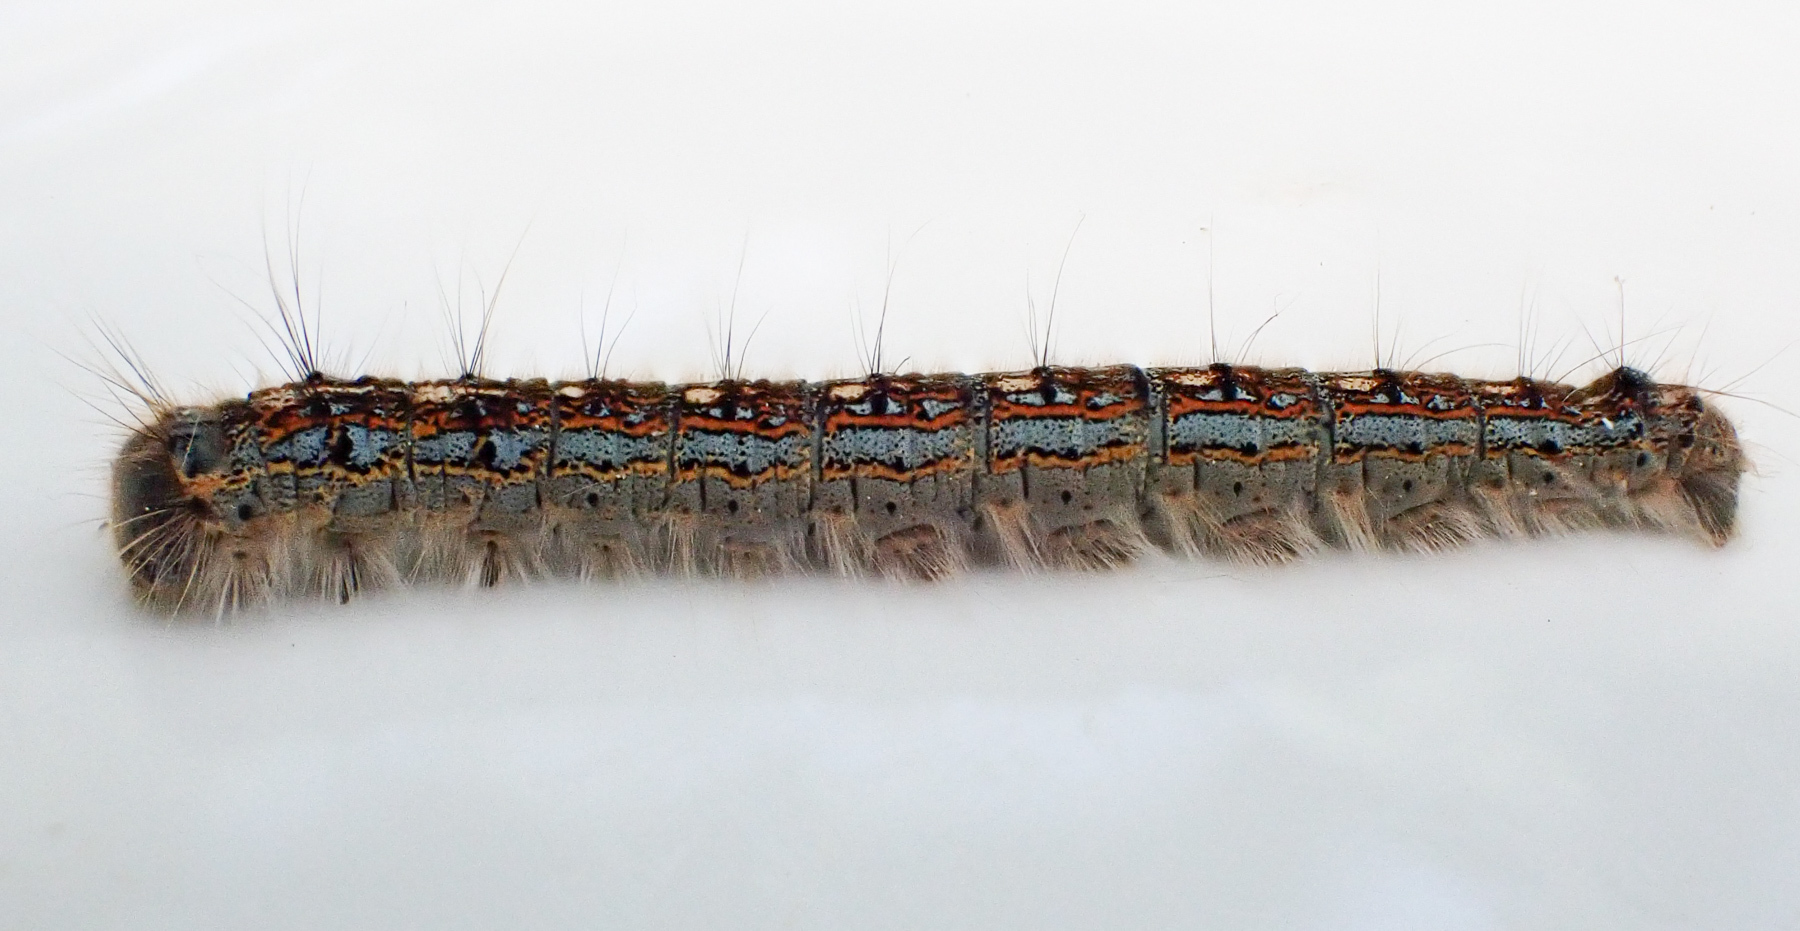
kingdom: Animalia
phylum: Arthropoda
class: Insecta
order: Lepidoptera
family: Lasiocampidae
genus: Malacosoma
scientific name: Malacosoma disstria
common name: Forest tent caterpillar
